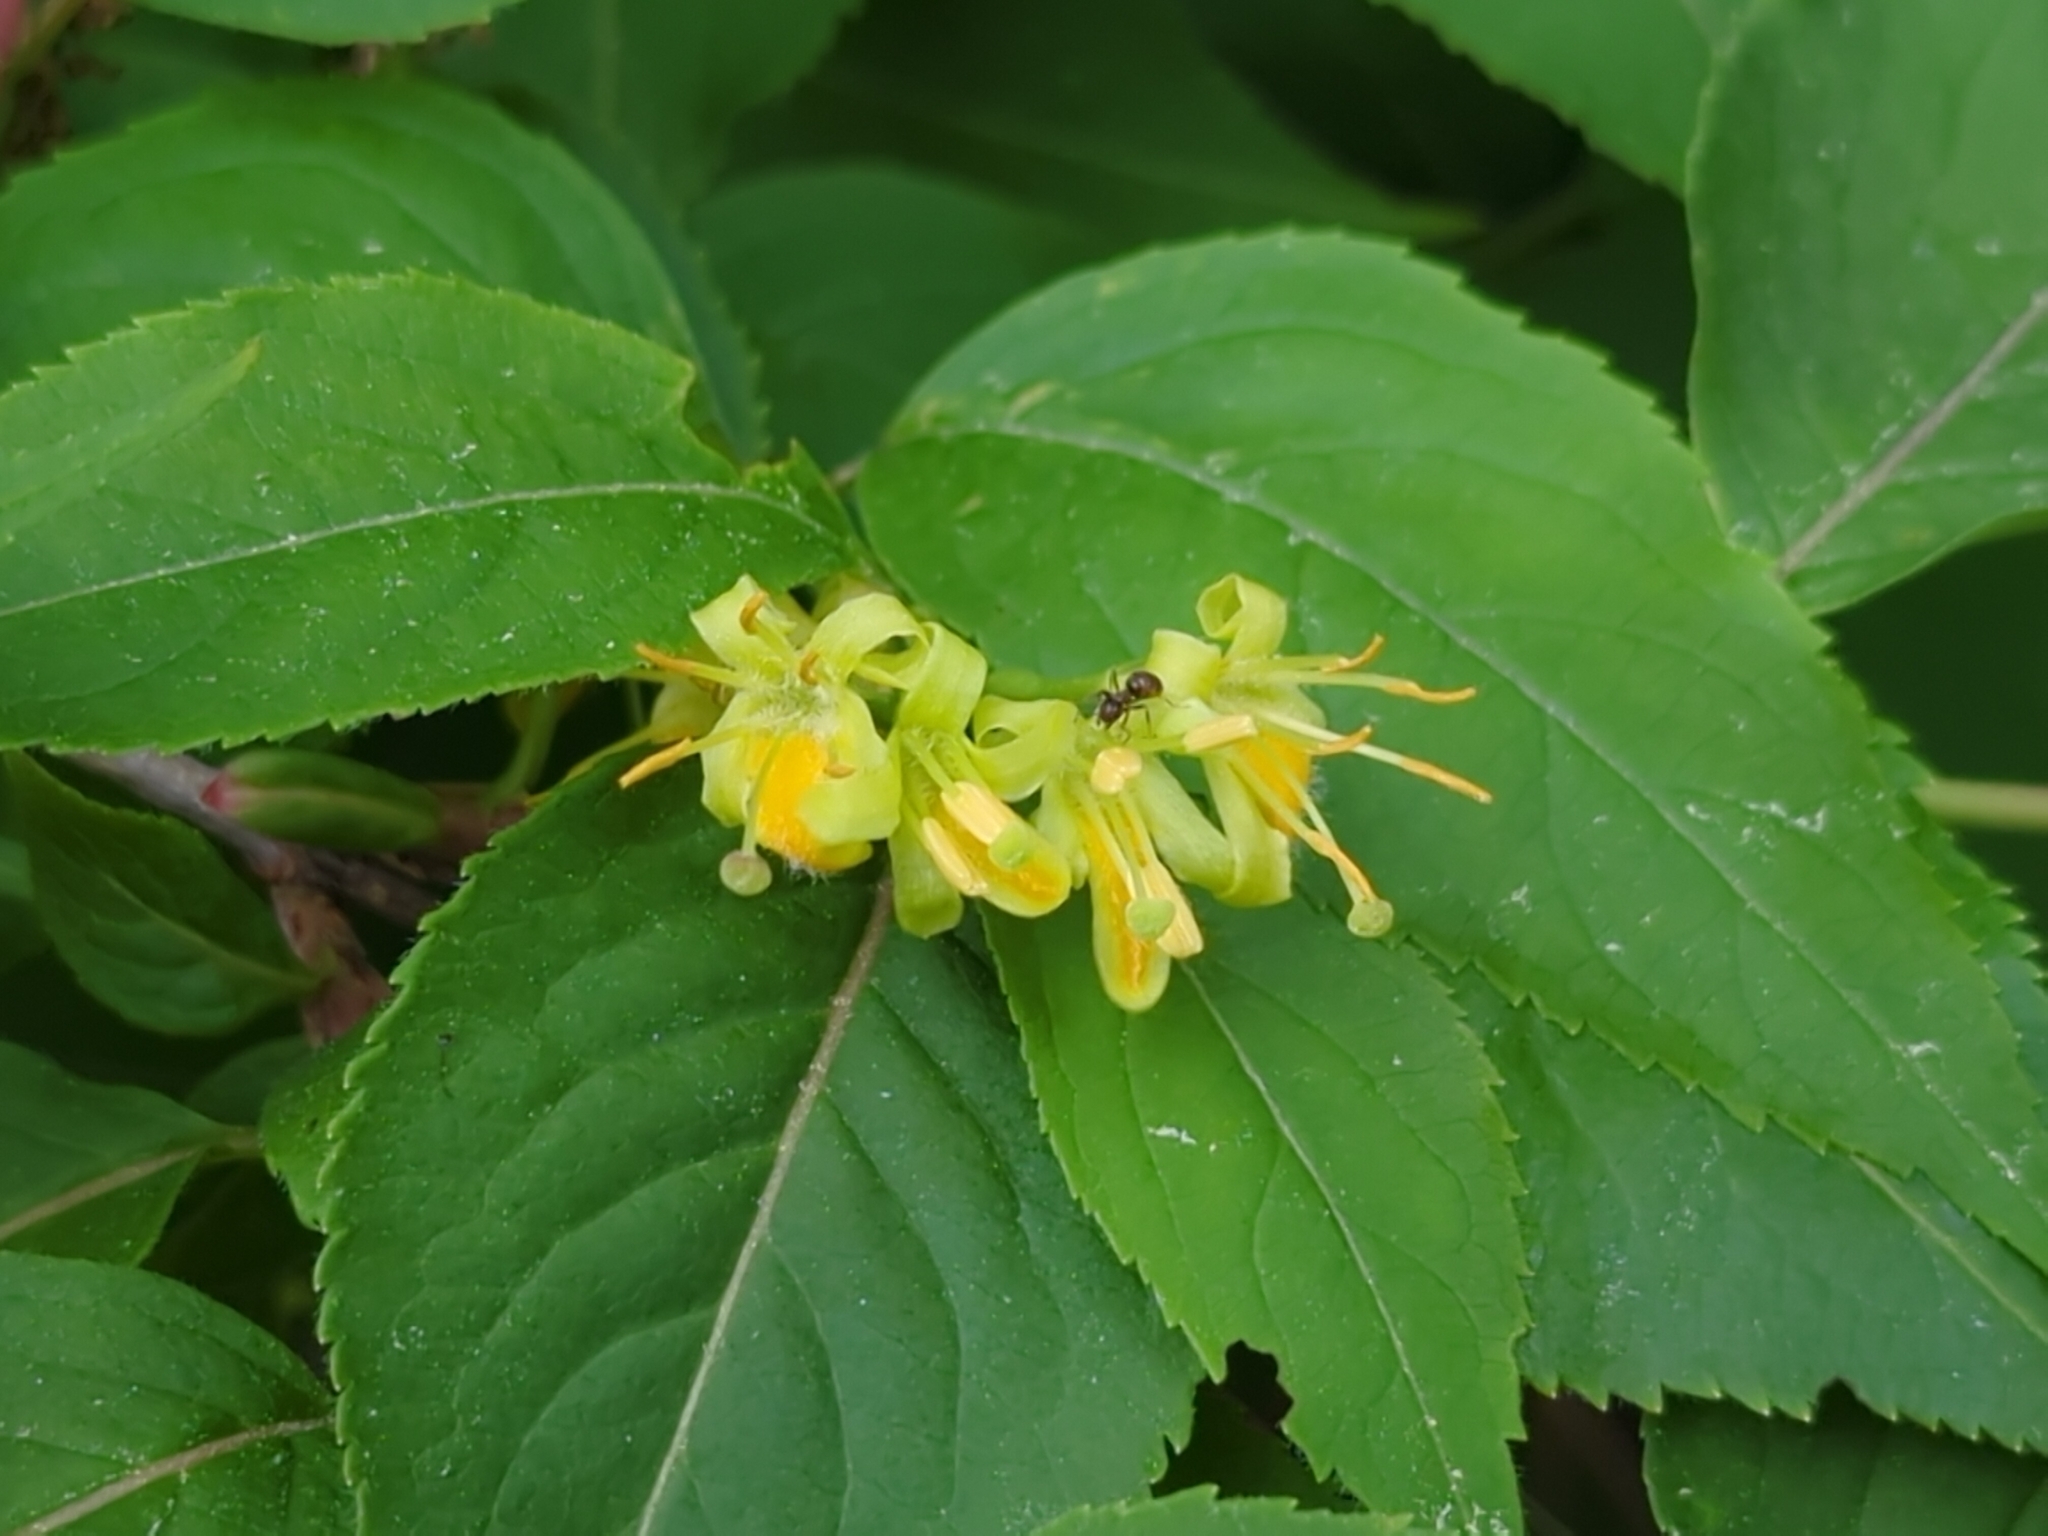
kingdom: Plantae
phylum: Tracheophyta
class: Magnoliopsida
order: Dipsacales
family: Caprifoliaceae
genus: Diervilla
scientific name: Diervilla lonicera
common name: Bush-honeysuckle
